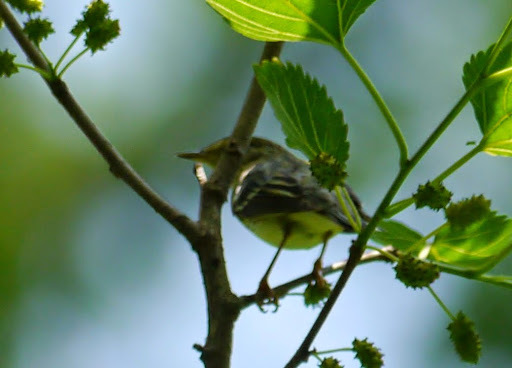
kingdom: Animalia
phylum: Chordata
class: Aves
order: Passeriformes
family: Parulidae
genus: Setophaga
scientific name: Setophaga striata
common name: Blackpoll warbler
